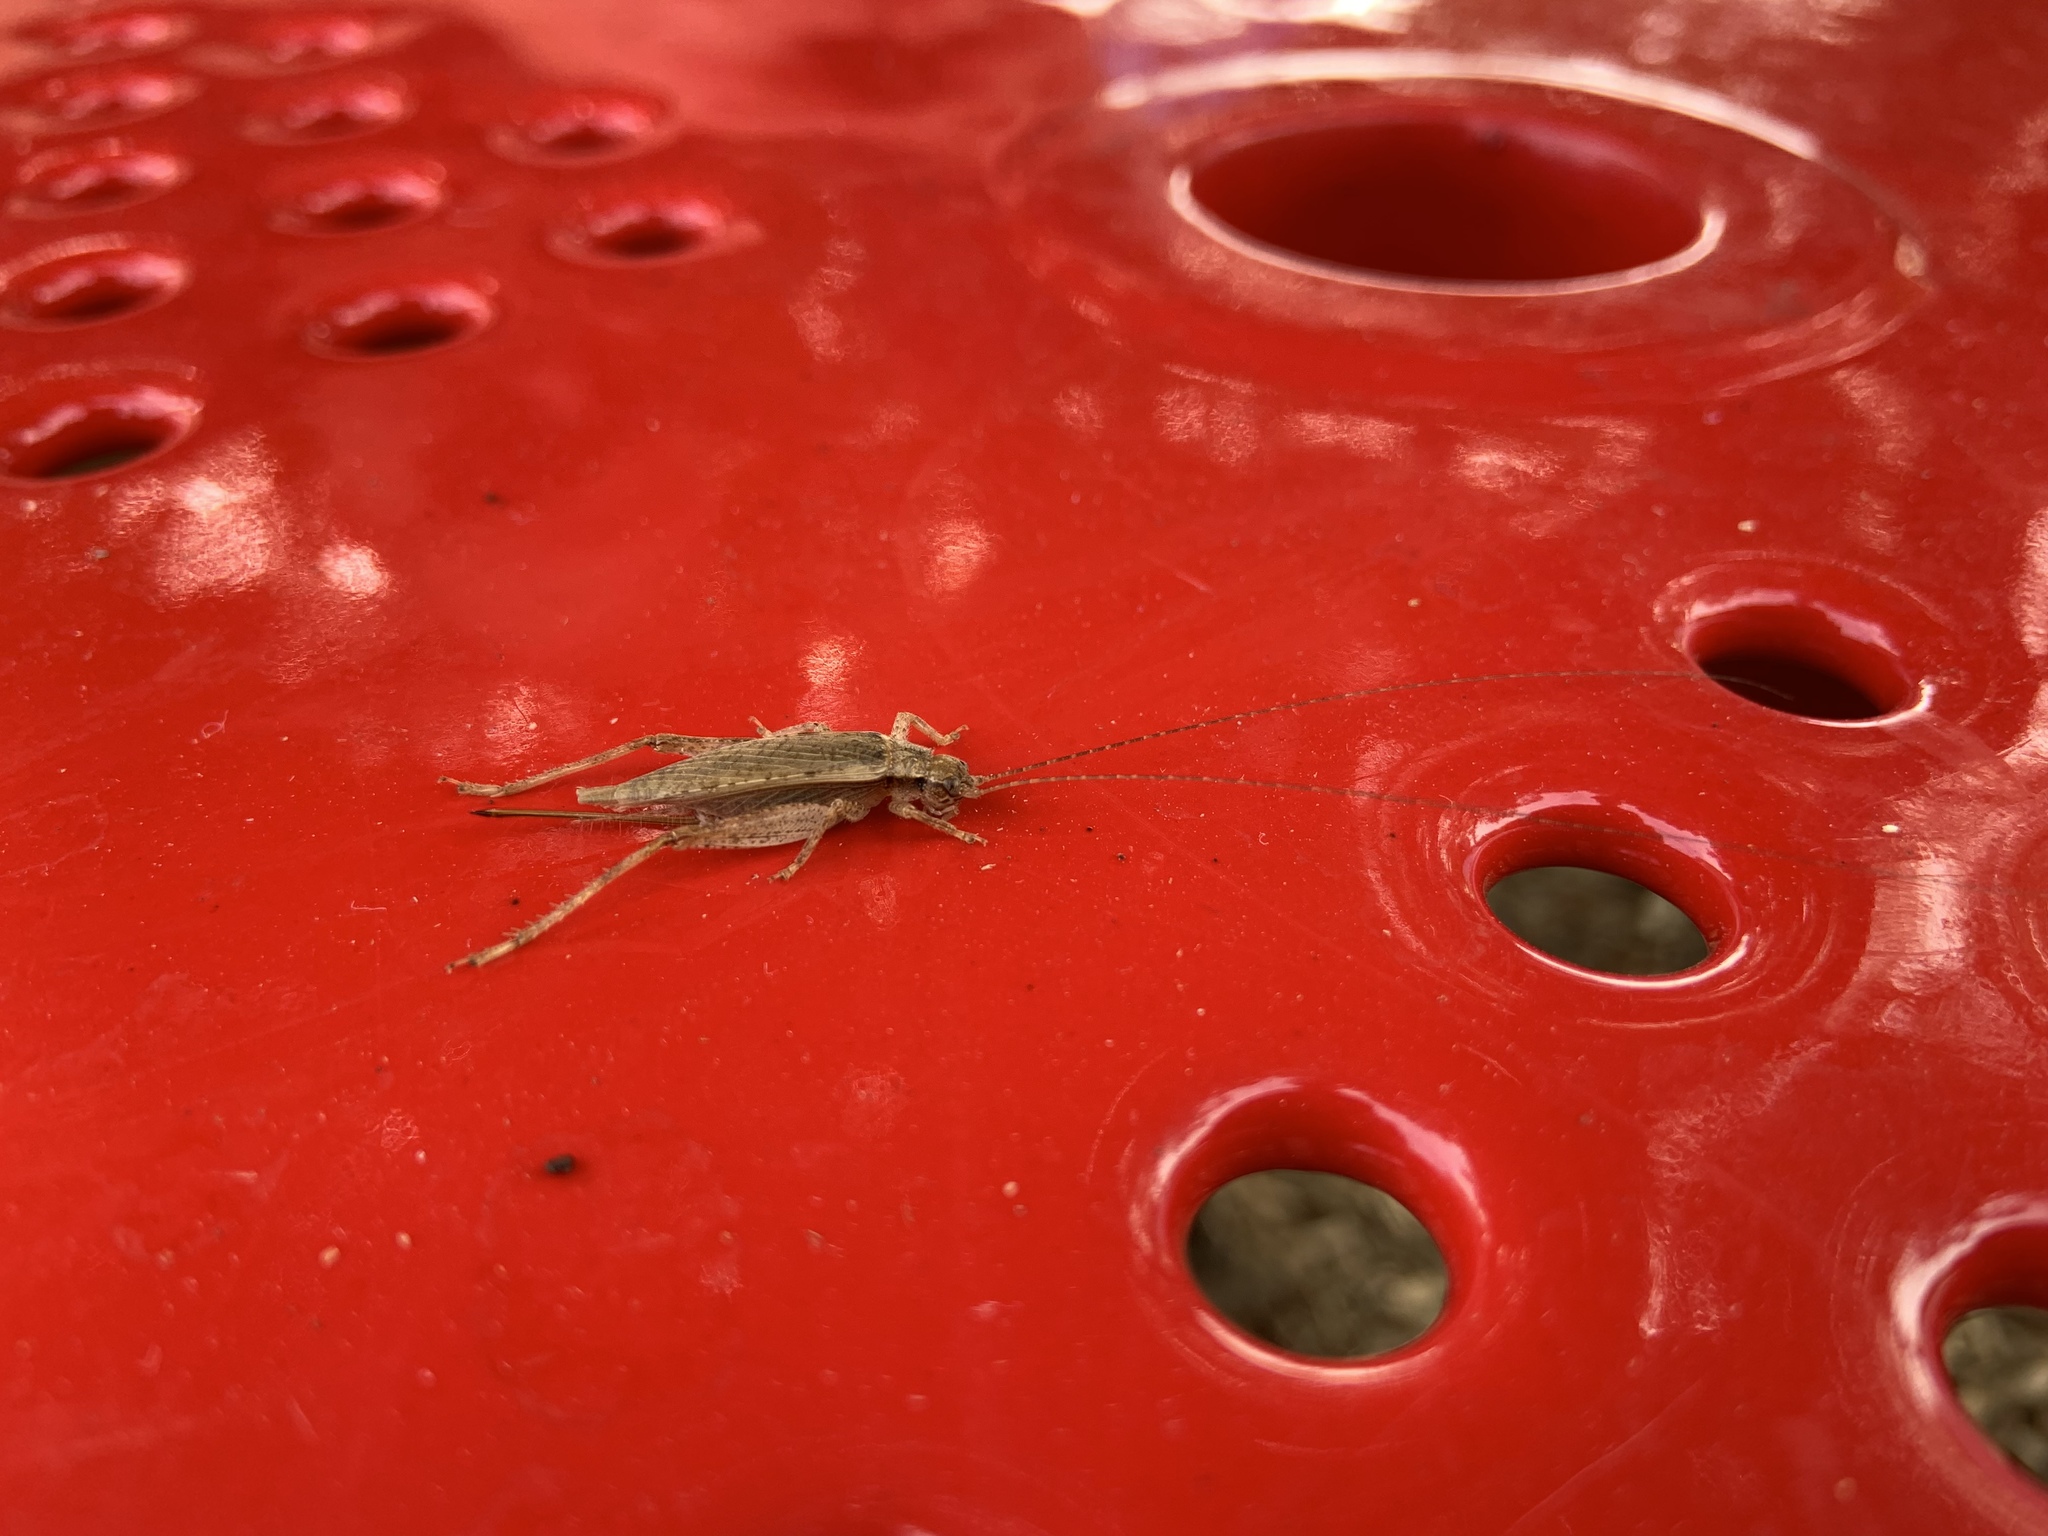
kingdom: Animalia
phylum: Arthropoda
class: Insecta
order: Orthoptera
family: Gryllidae
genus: Hapithus
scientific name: Hapithus saltator
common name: Jumping bush cricket
